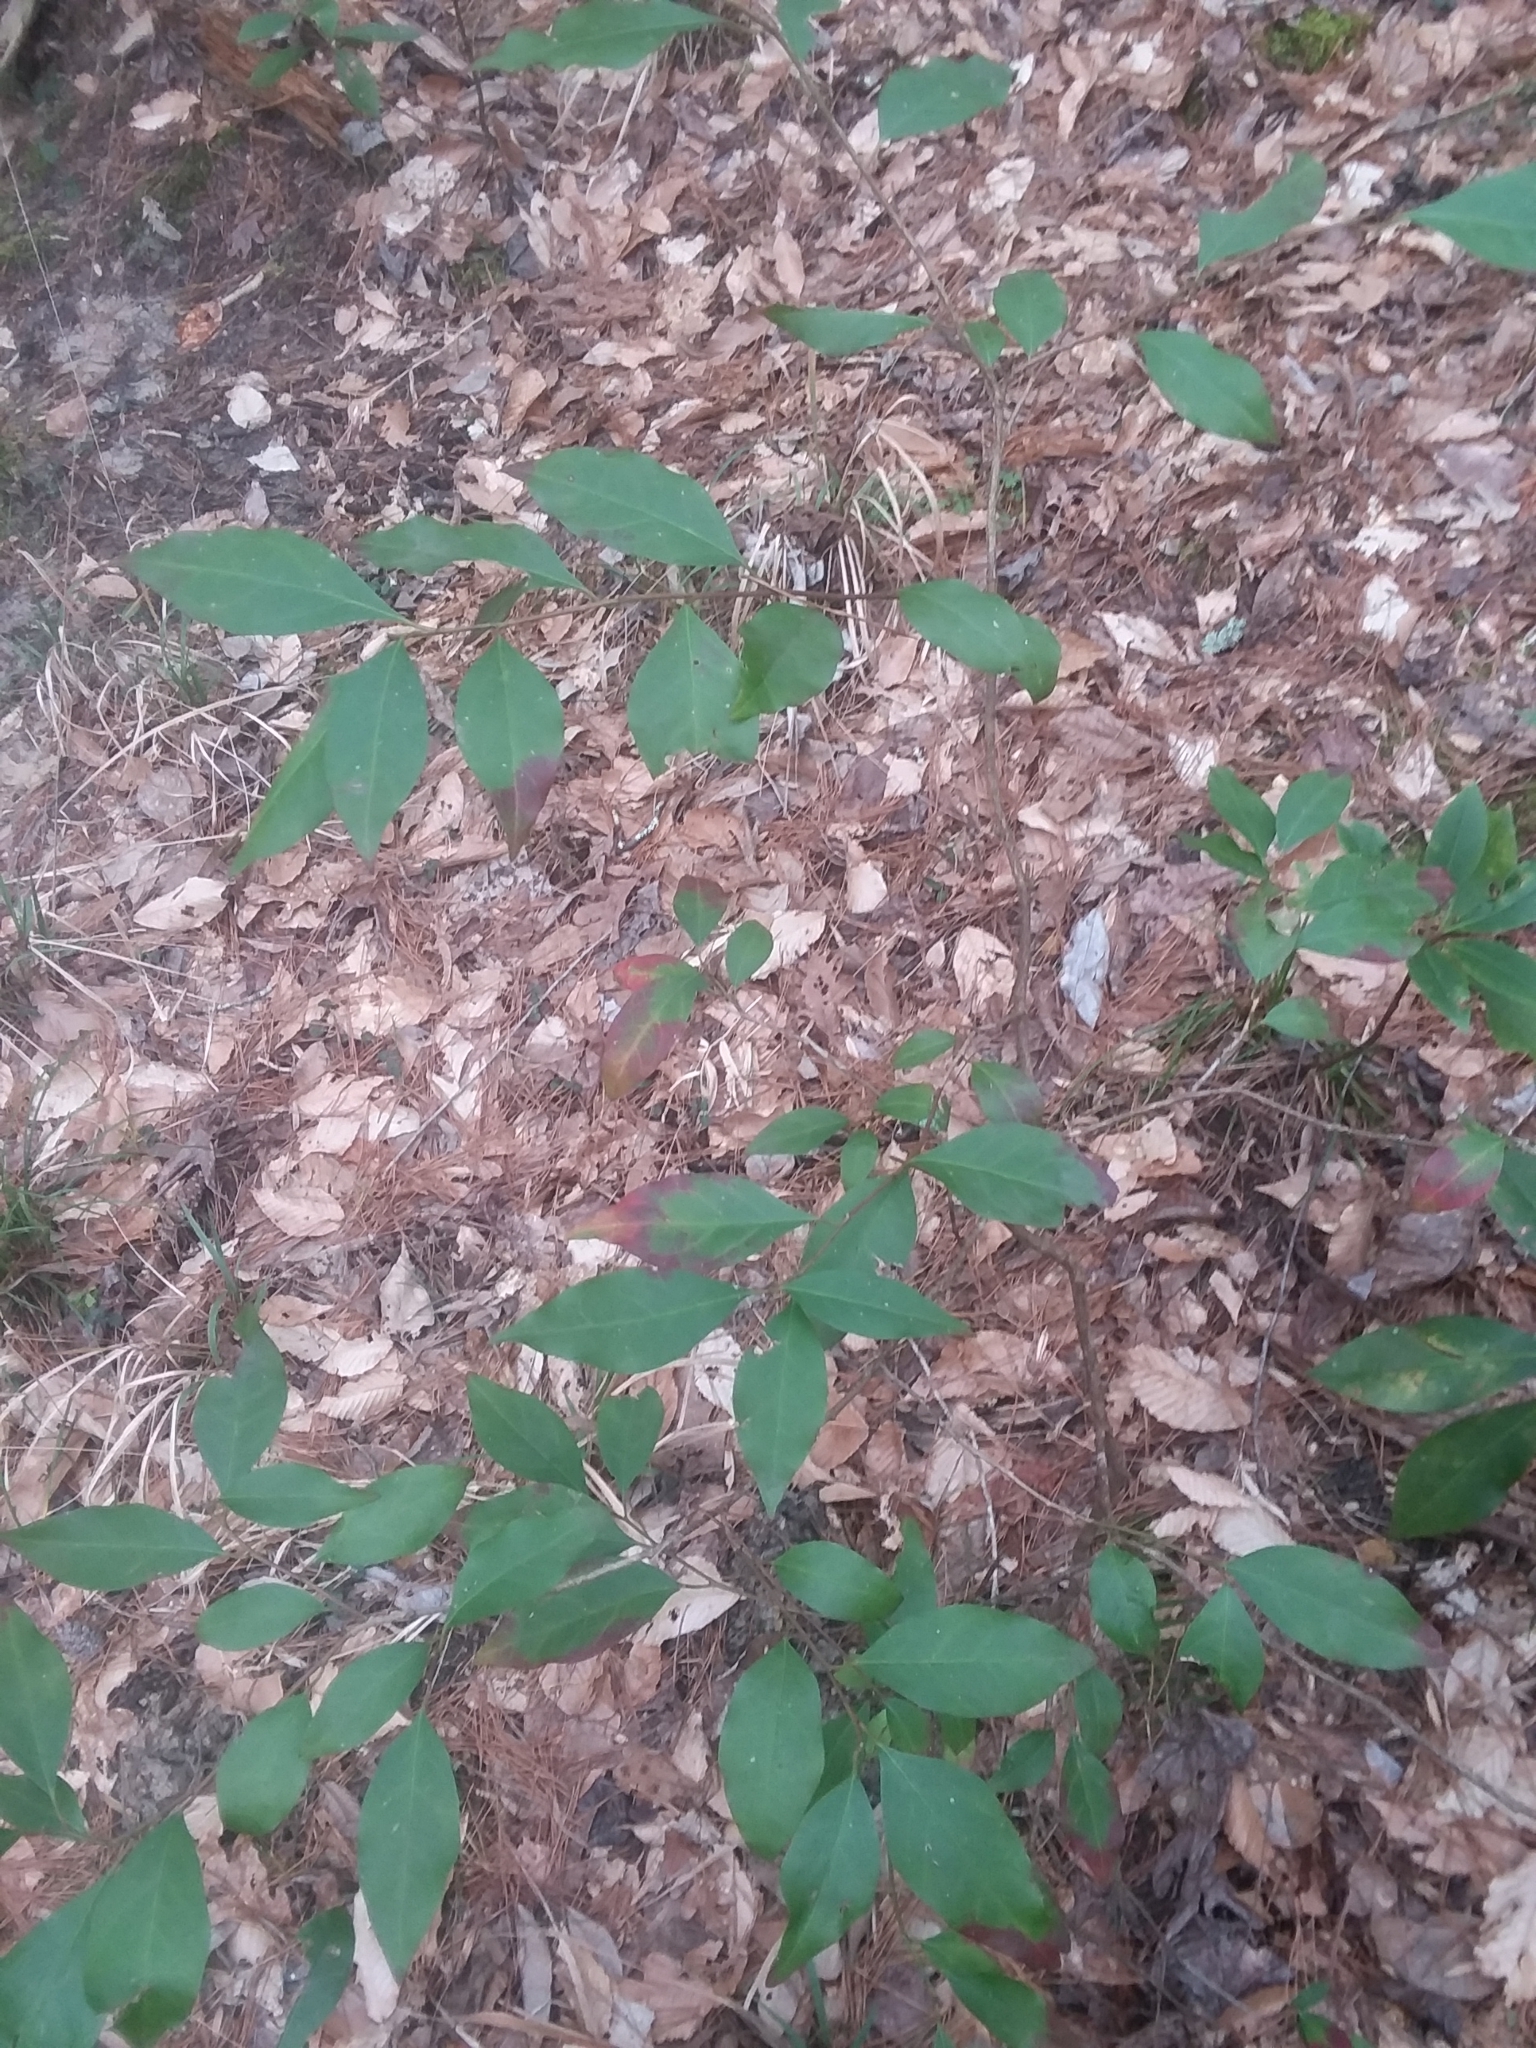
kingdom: Plantae
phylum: Tracheophyta
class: Magnoliopsida
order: Malpighiales
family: Euphorbiaceae
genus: Ditrysinia
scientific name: Ditrysinia fruticosa
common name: Gulf sebastian-bush
